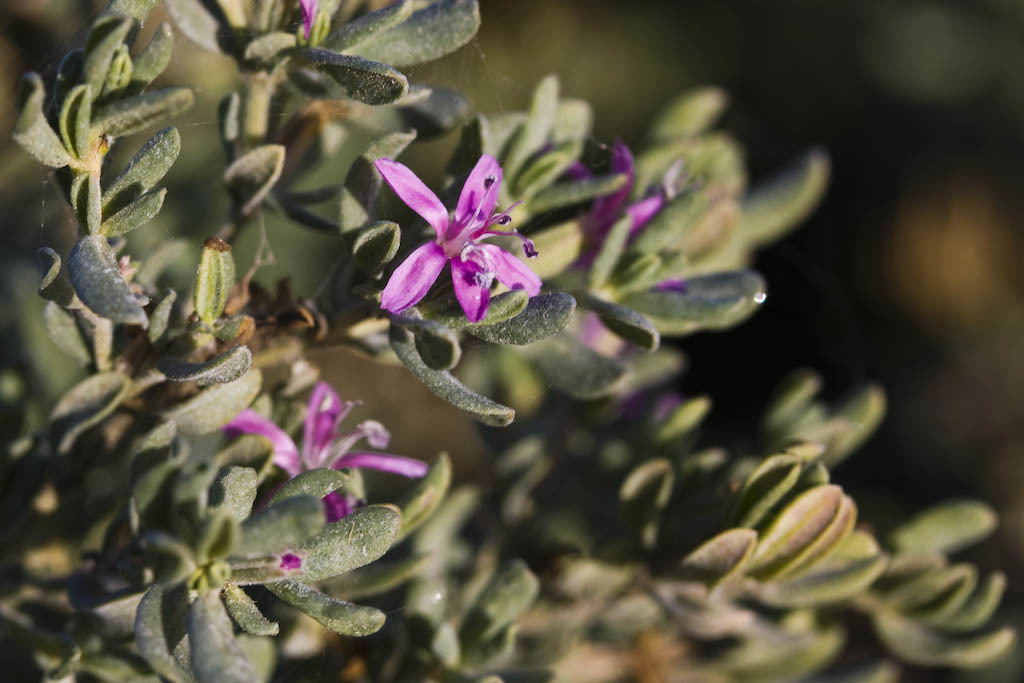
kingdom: Plantae
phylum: Tracheophyta
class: Magnoliopsida
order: Caryophyllales
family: Frankeniaceae
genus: Frankenia
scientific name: Frankenia salina
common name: Alkali seaheath
